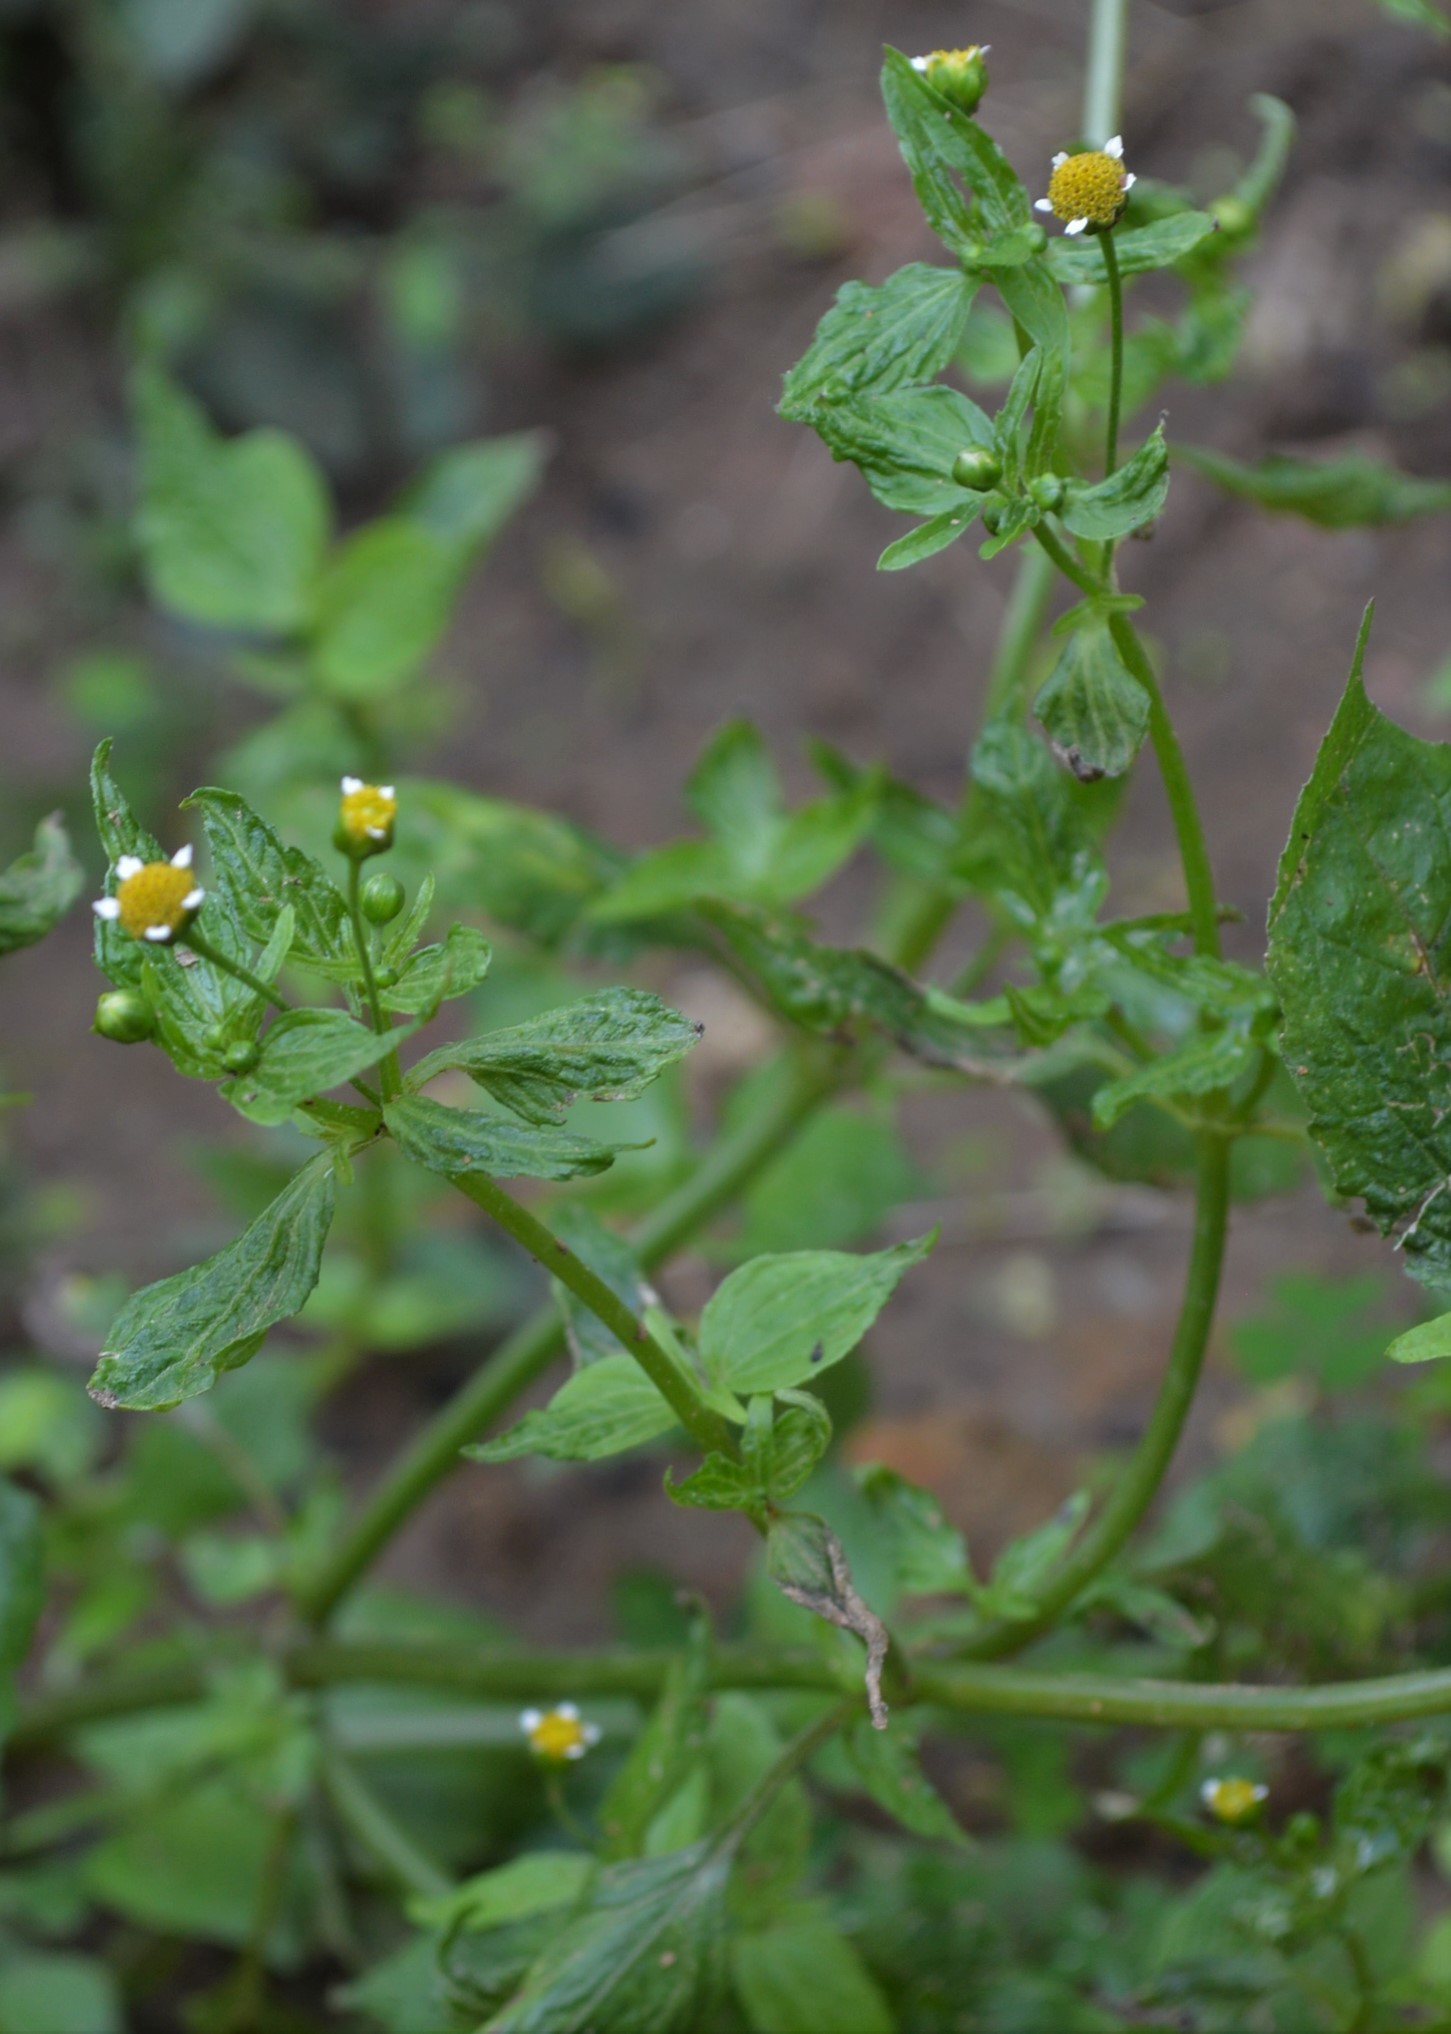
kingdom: Plantae
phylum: Tracheophyta
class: Magnoliopsida
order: Asterales
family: Asteraceae
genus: Galinsoga
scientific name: Galinsoga parviflora
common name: Gallant soldier
